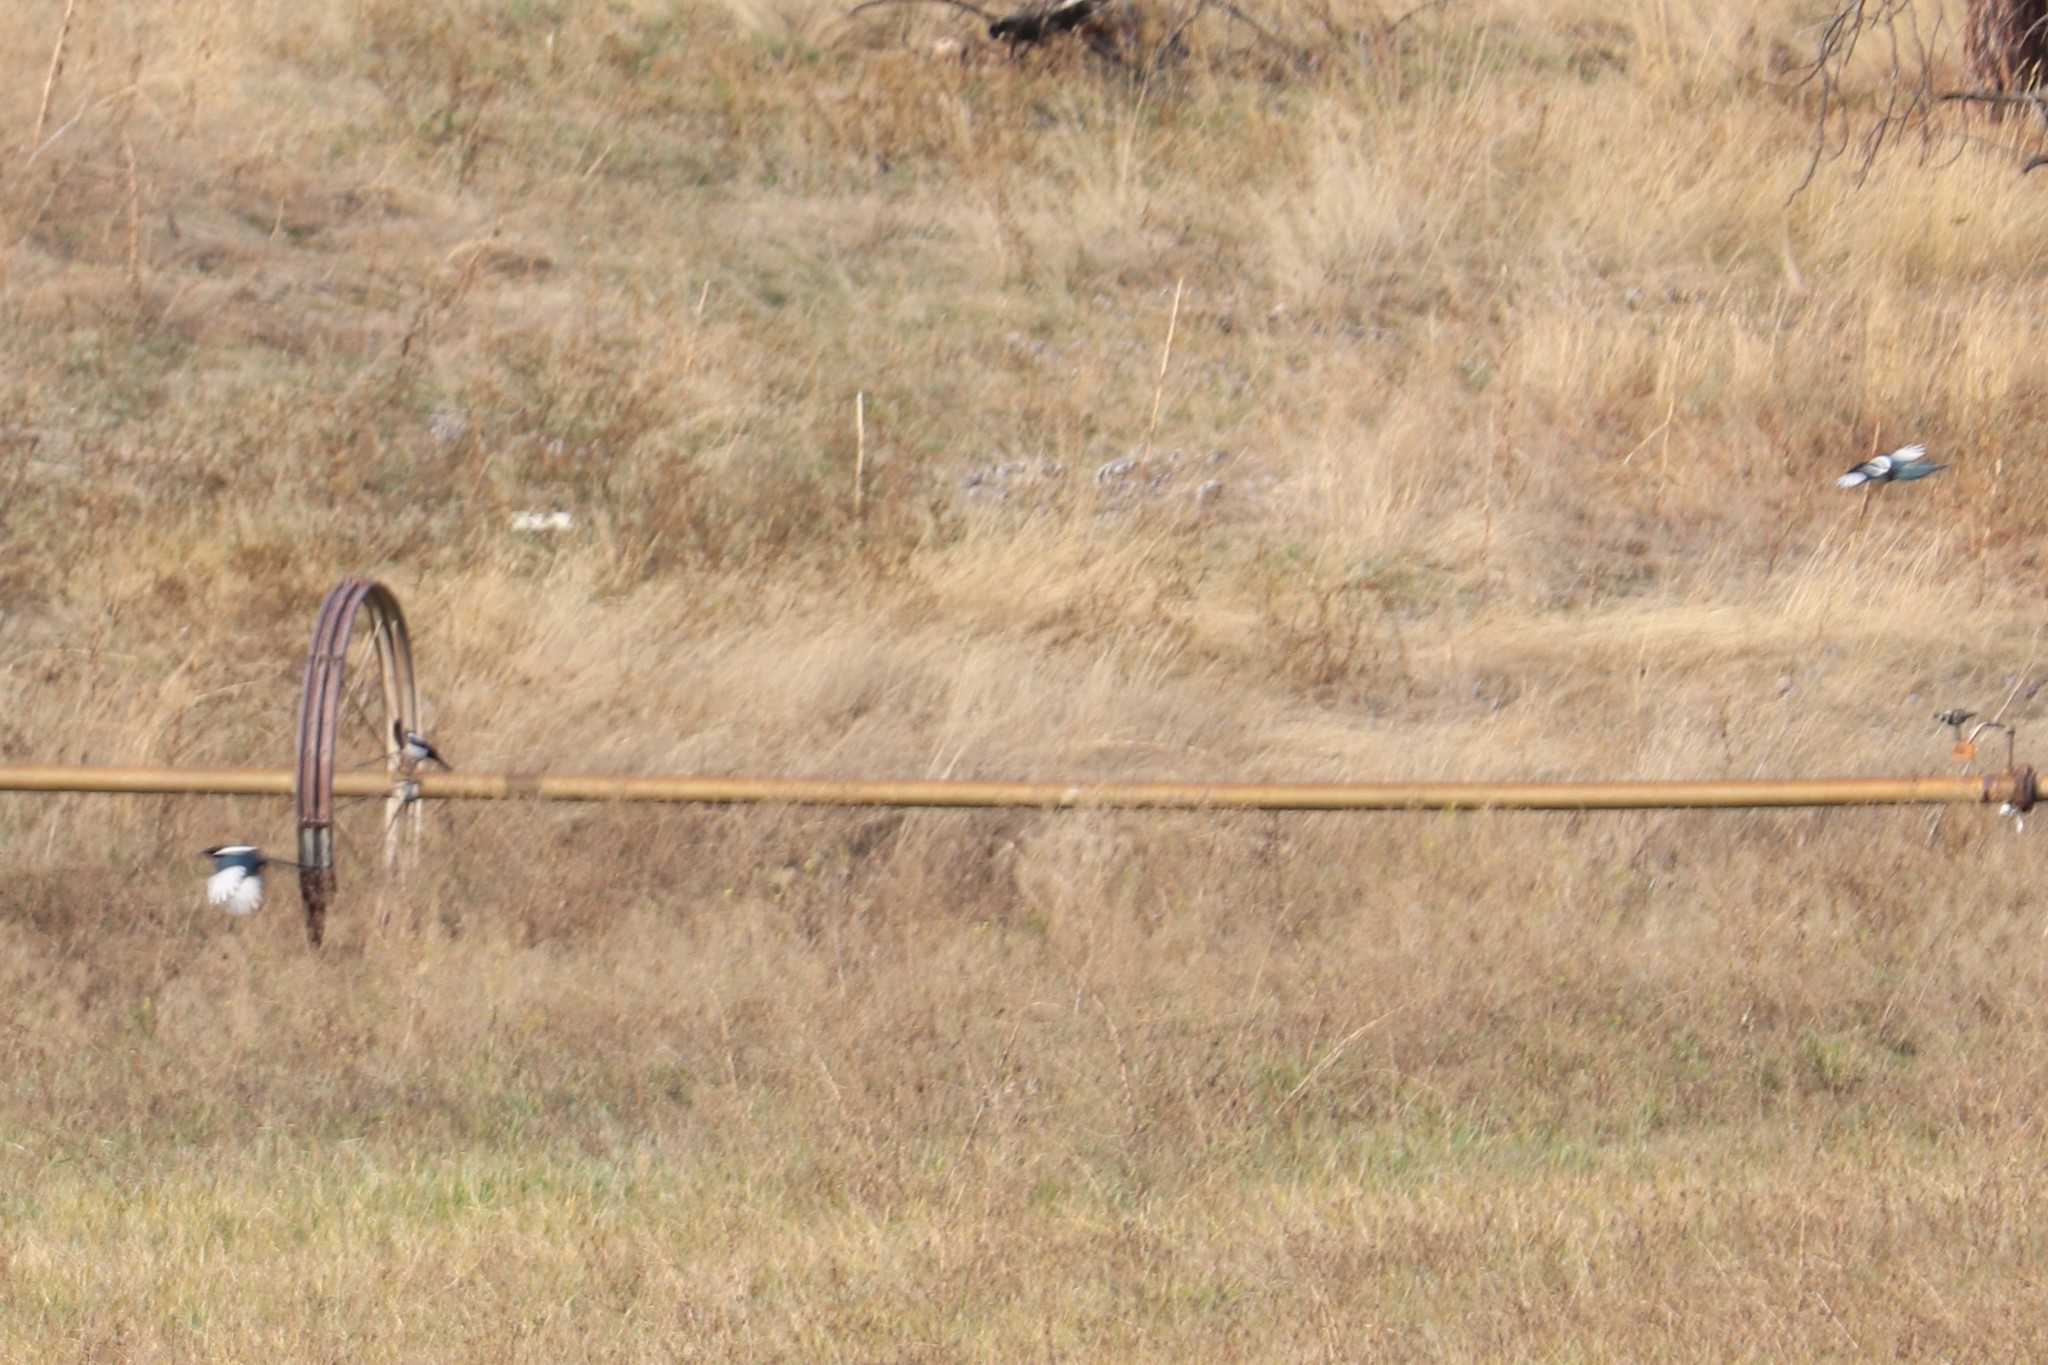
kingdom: Animalia
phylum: Chordata
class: Aves
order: Passeriformes
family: Corvidae
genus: Pica
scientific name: Pica hudsonia
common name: Black-billed magpie
